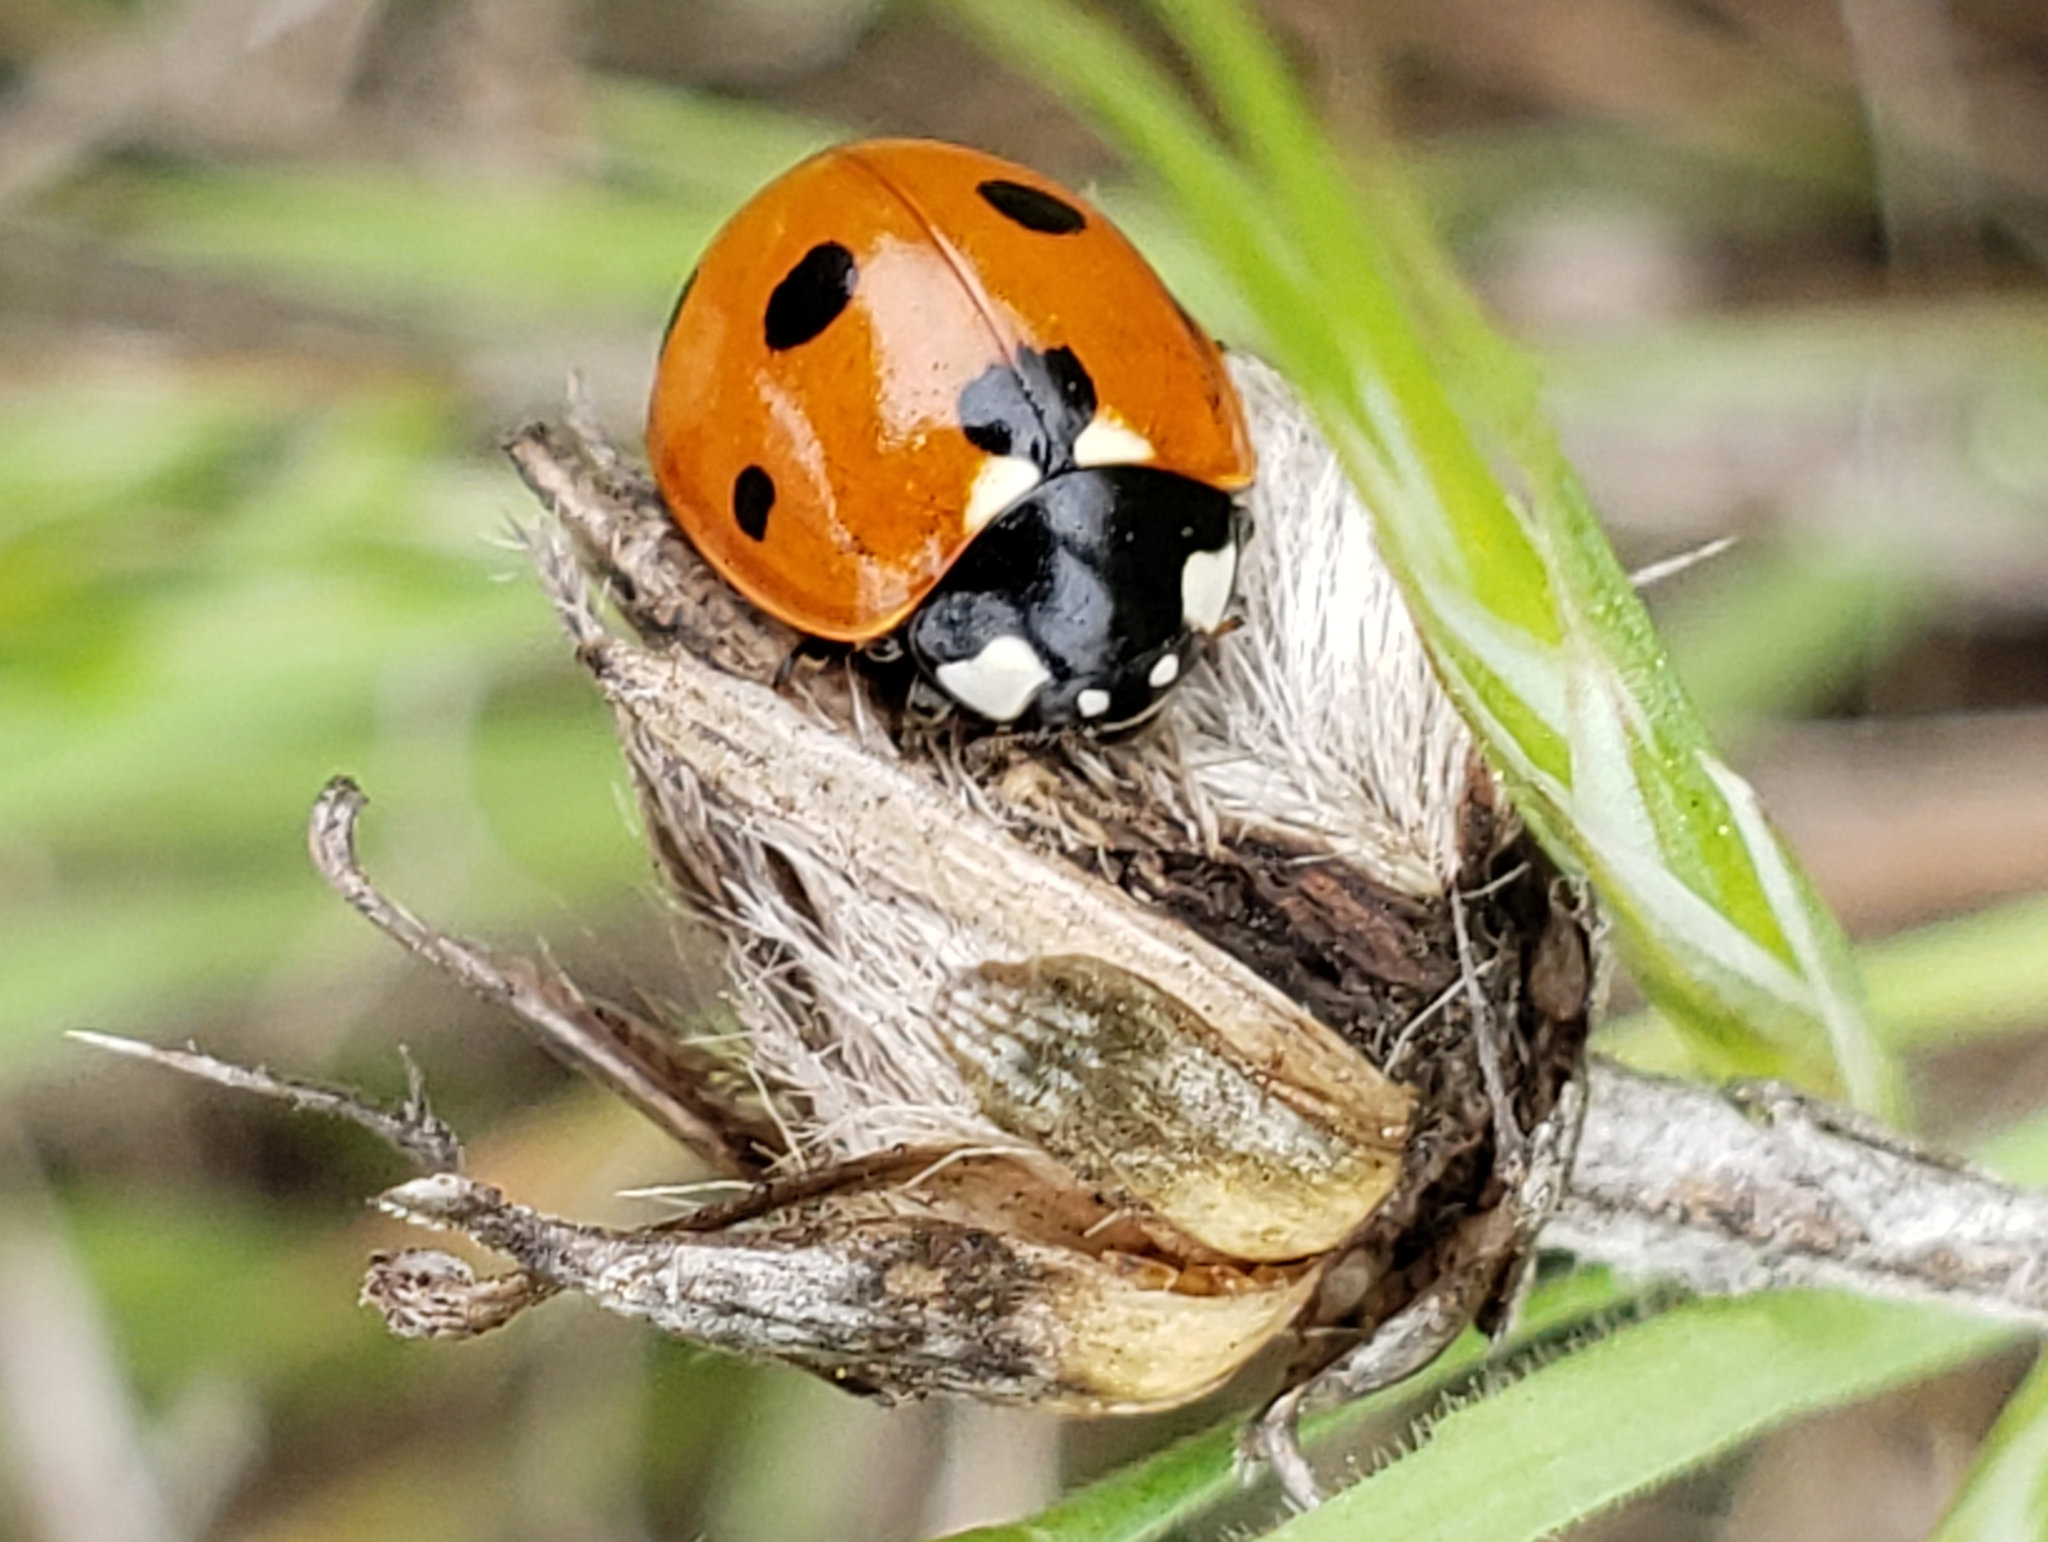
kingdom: Animalia
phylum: Arthropoda
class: Insecta
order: Coleoptera
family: Coccinellidae
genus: Coccinella
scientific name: Coccinella septempunctata
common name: Sevenspotted lady beetle
